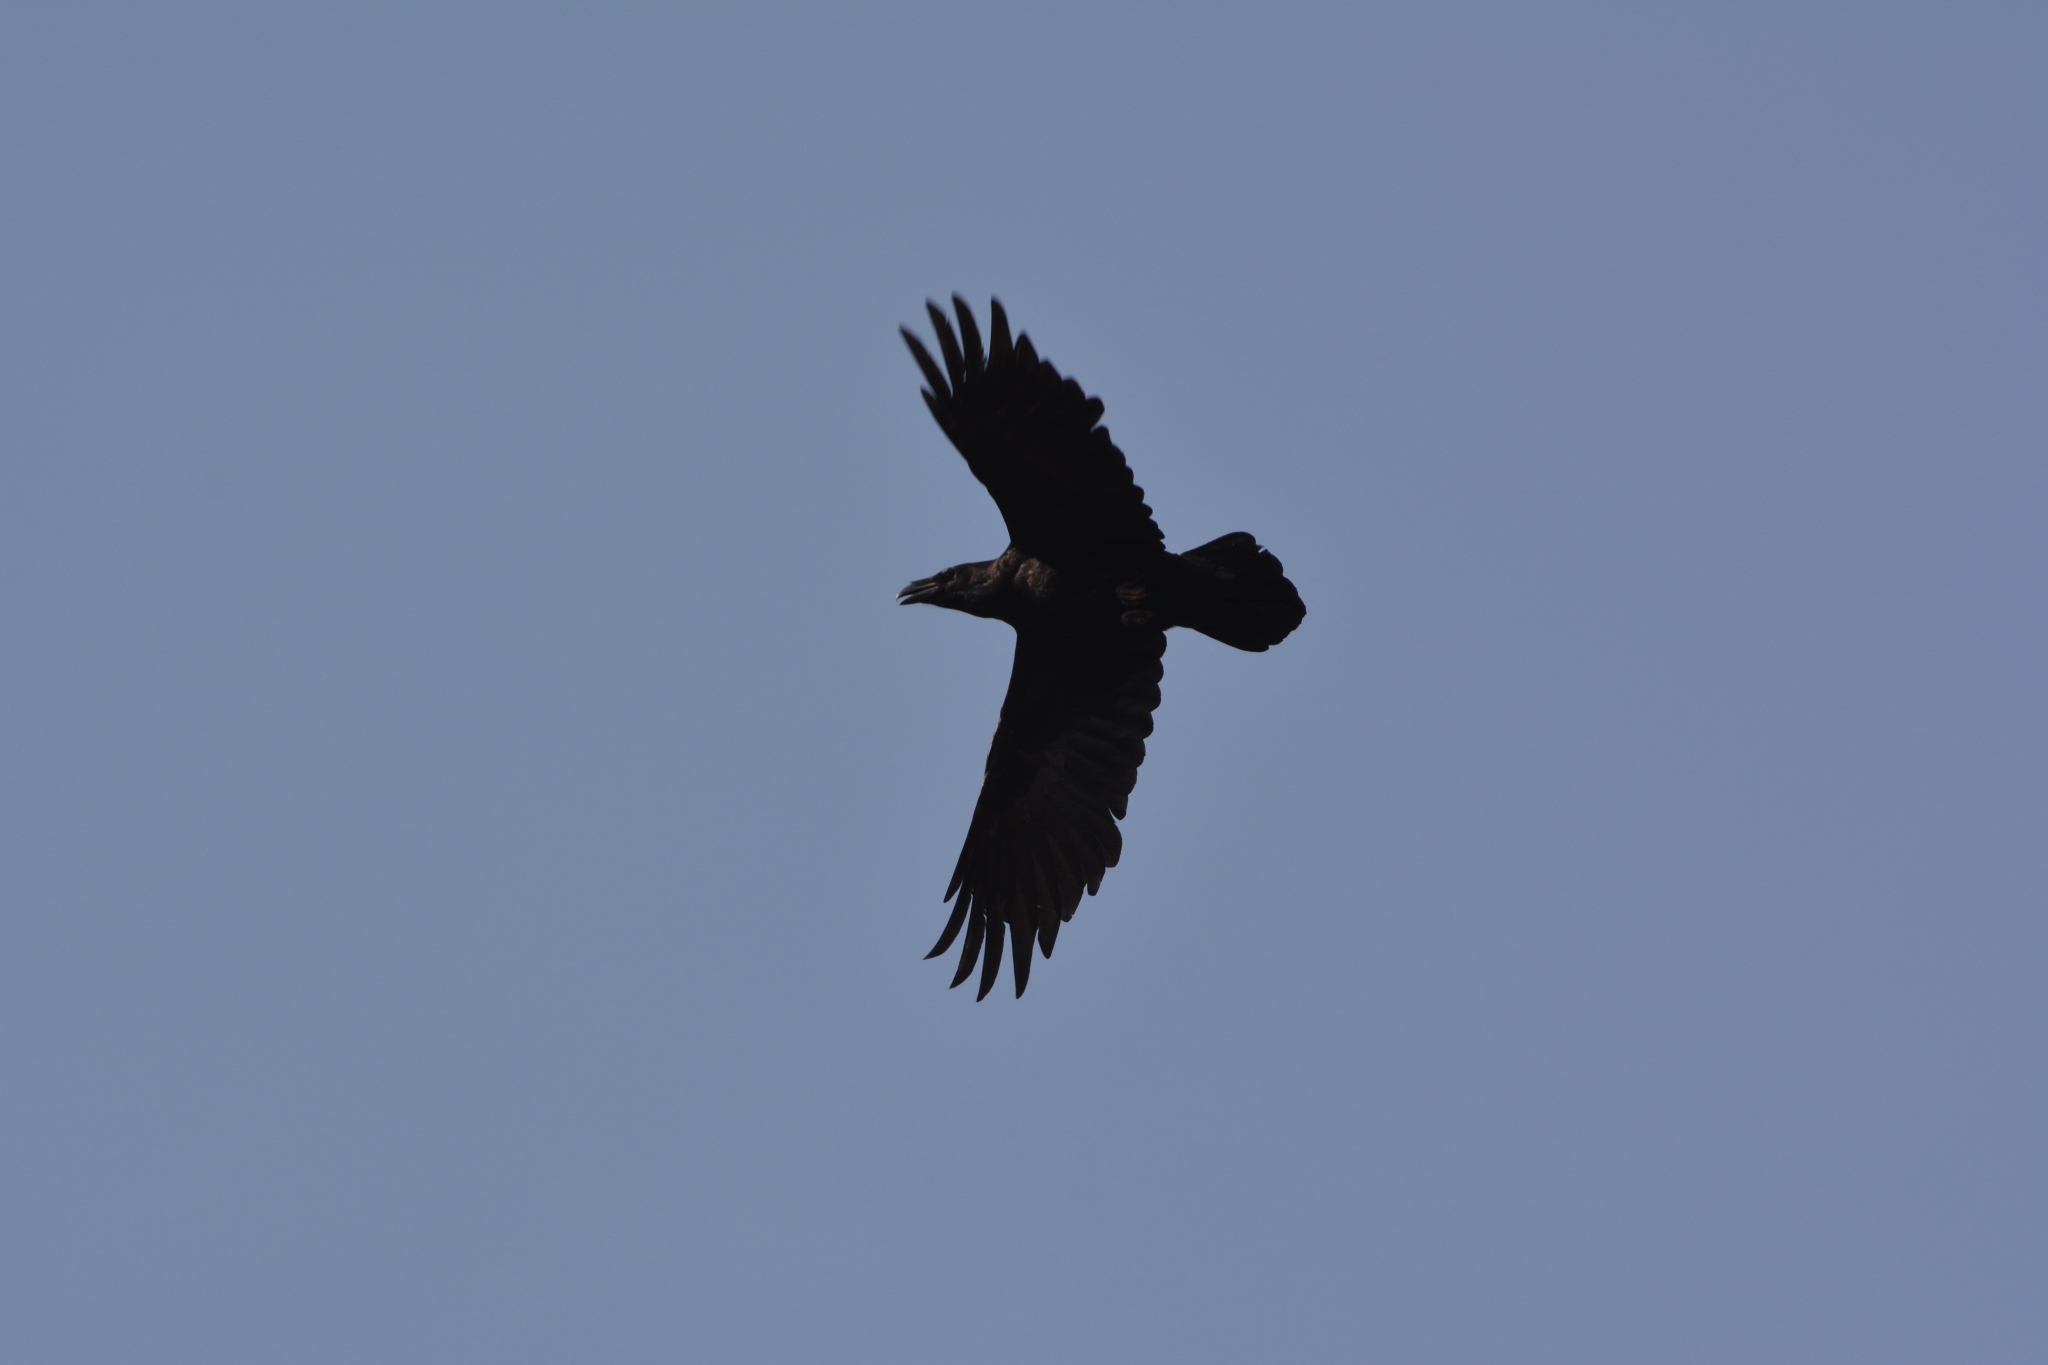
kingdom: Animalia
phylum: Chordata
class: Aves
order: Passeriformes
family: Corvidae
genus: Corvus
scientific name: Corvus corax
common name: Common raven
